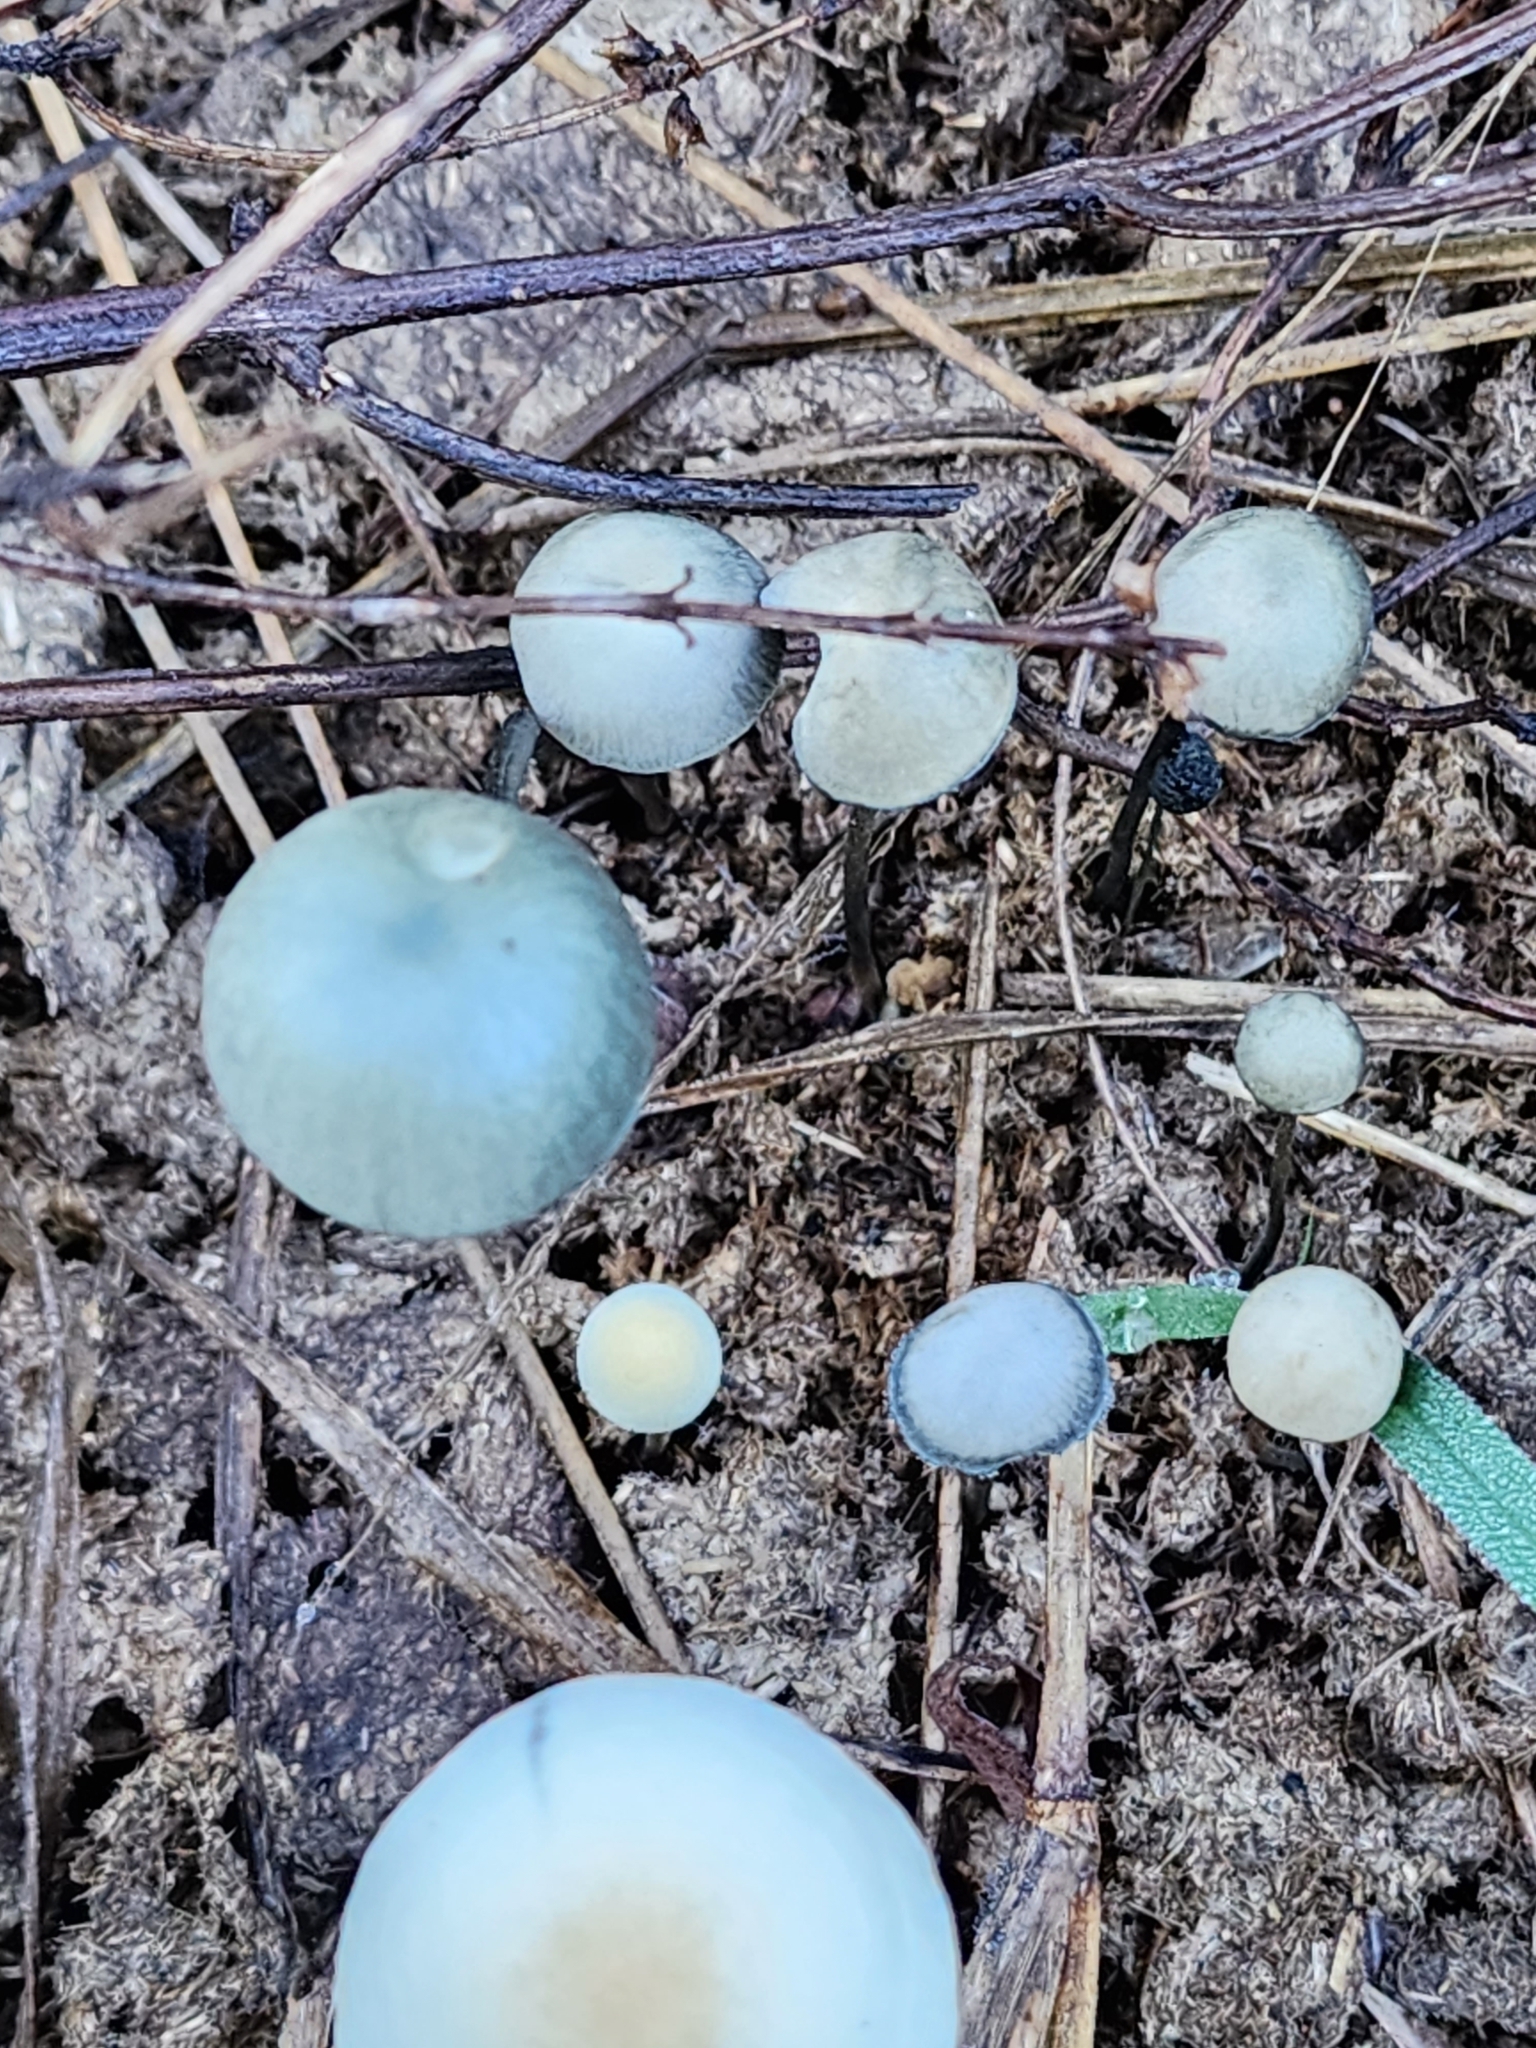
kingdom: Fungi
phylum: Basidiomycota
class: Agaricomycetes
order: Agaricales
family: Bolbitiaceae
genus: Panaeolus
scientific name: Panaeolus cyanescens
